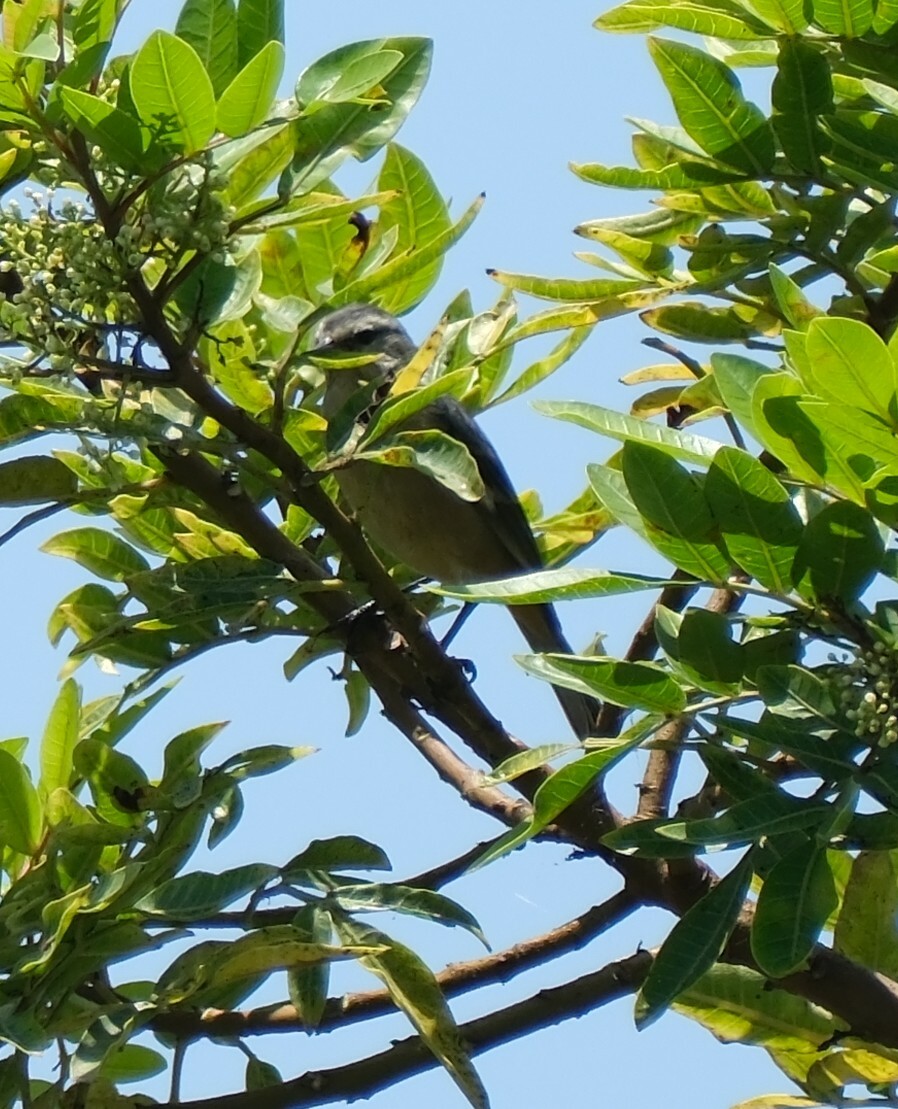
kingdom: Animalia
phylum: Chordata
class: Aves
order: Passeriformes
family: Thraupidae
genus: Conirostrum
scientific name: Conirostrum cinereum
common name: Cinereous conebill
